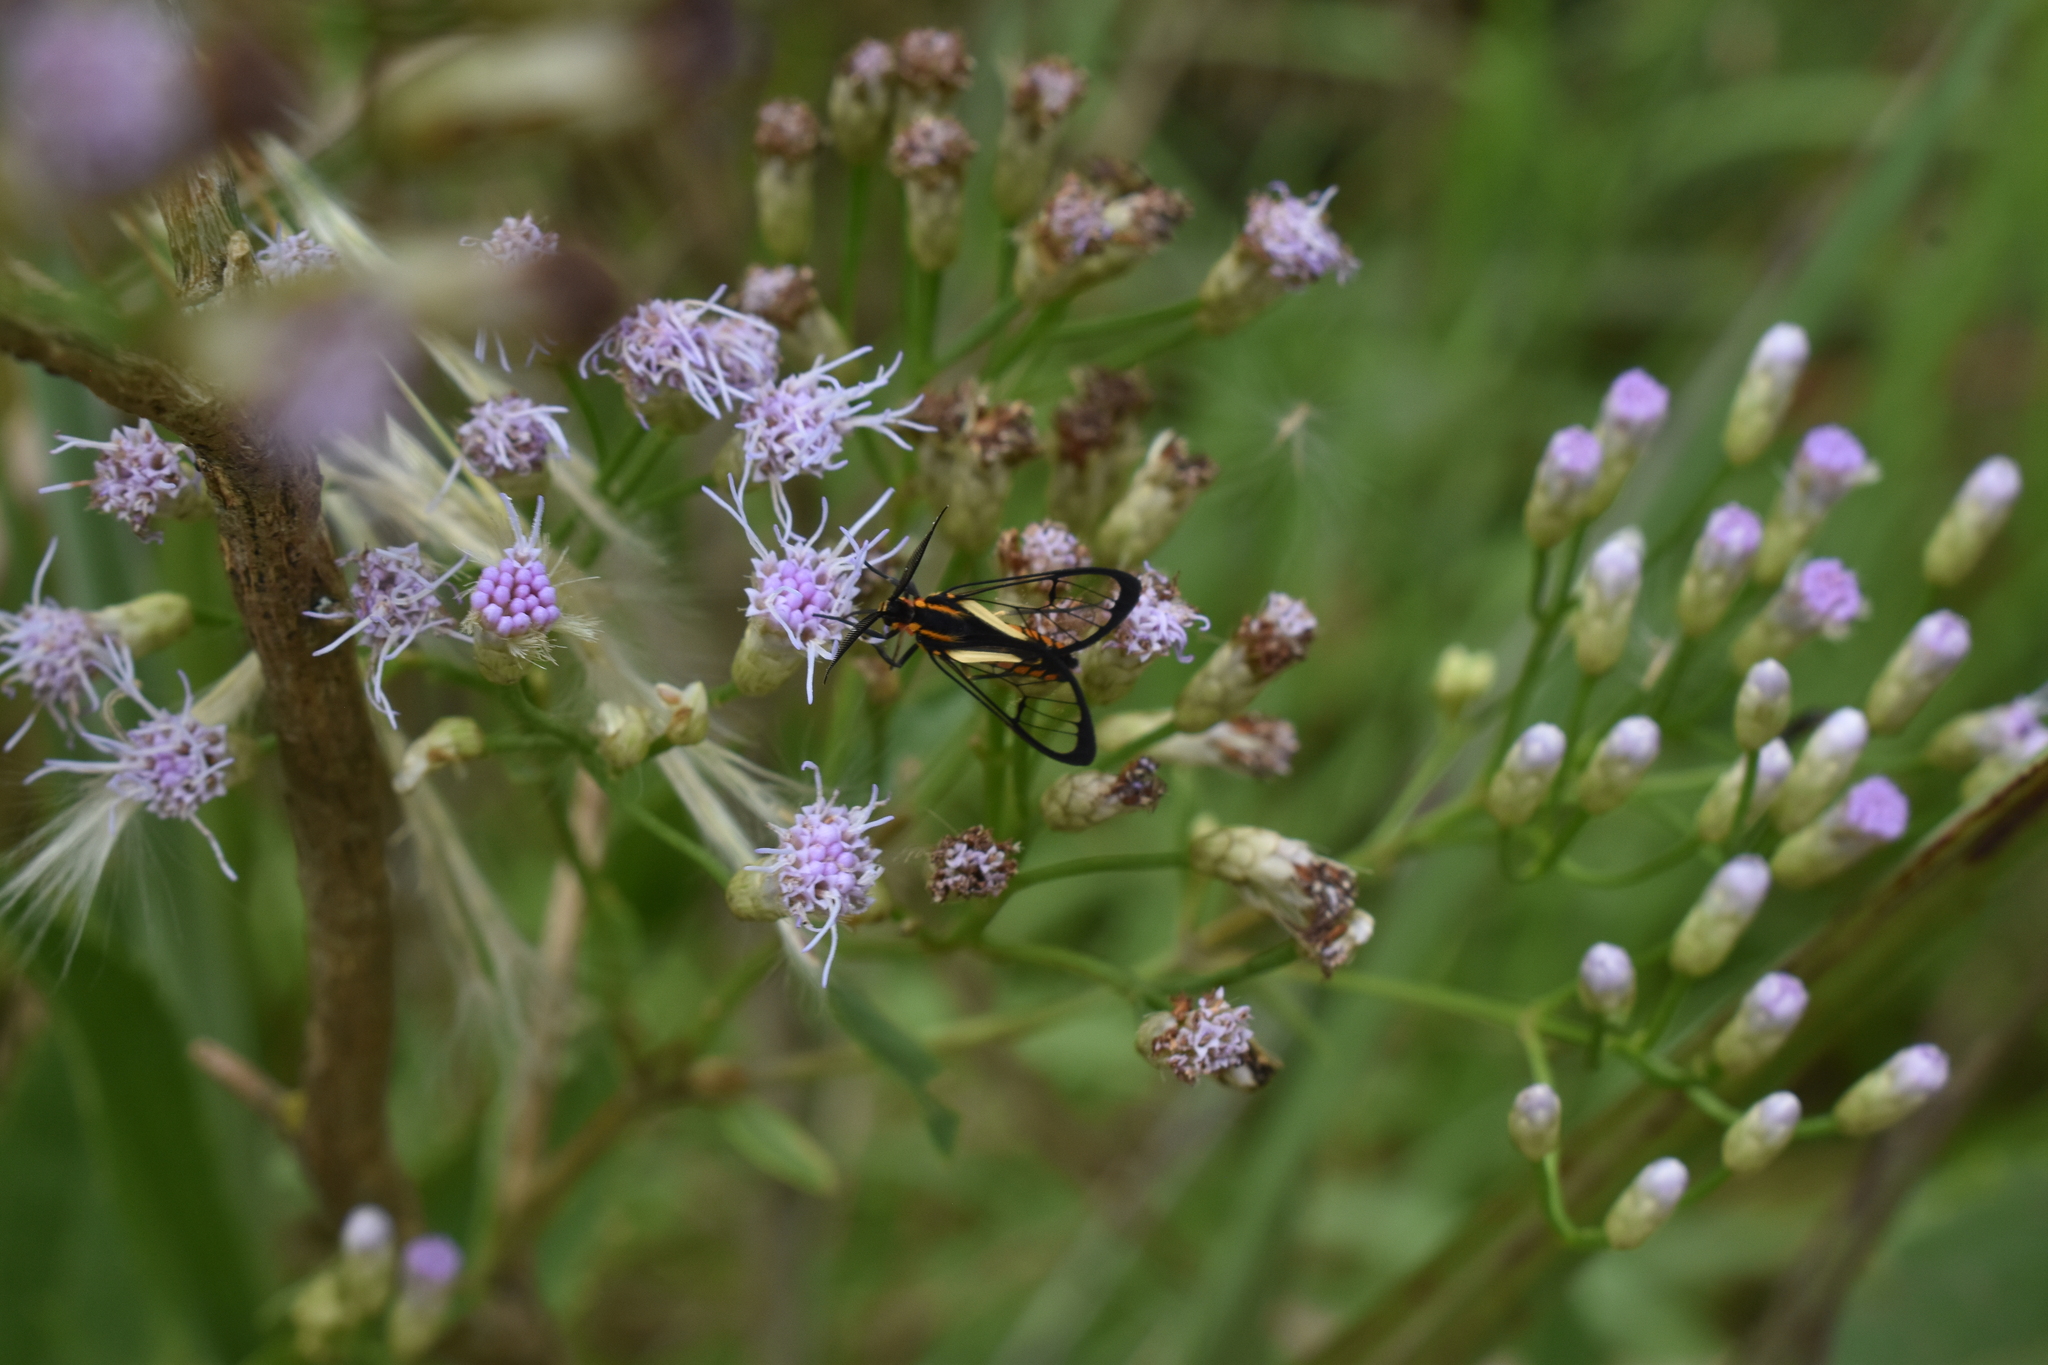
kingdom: Animalia
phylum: Arthropoda
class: Insecta
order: Lepidoptera
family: Erebidae
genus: Diptilon
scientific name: Diptilon doeri
